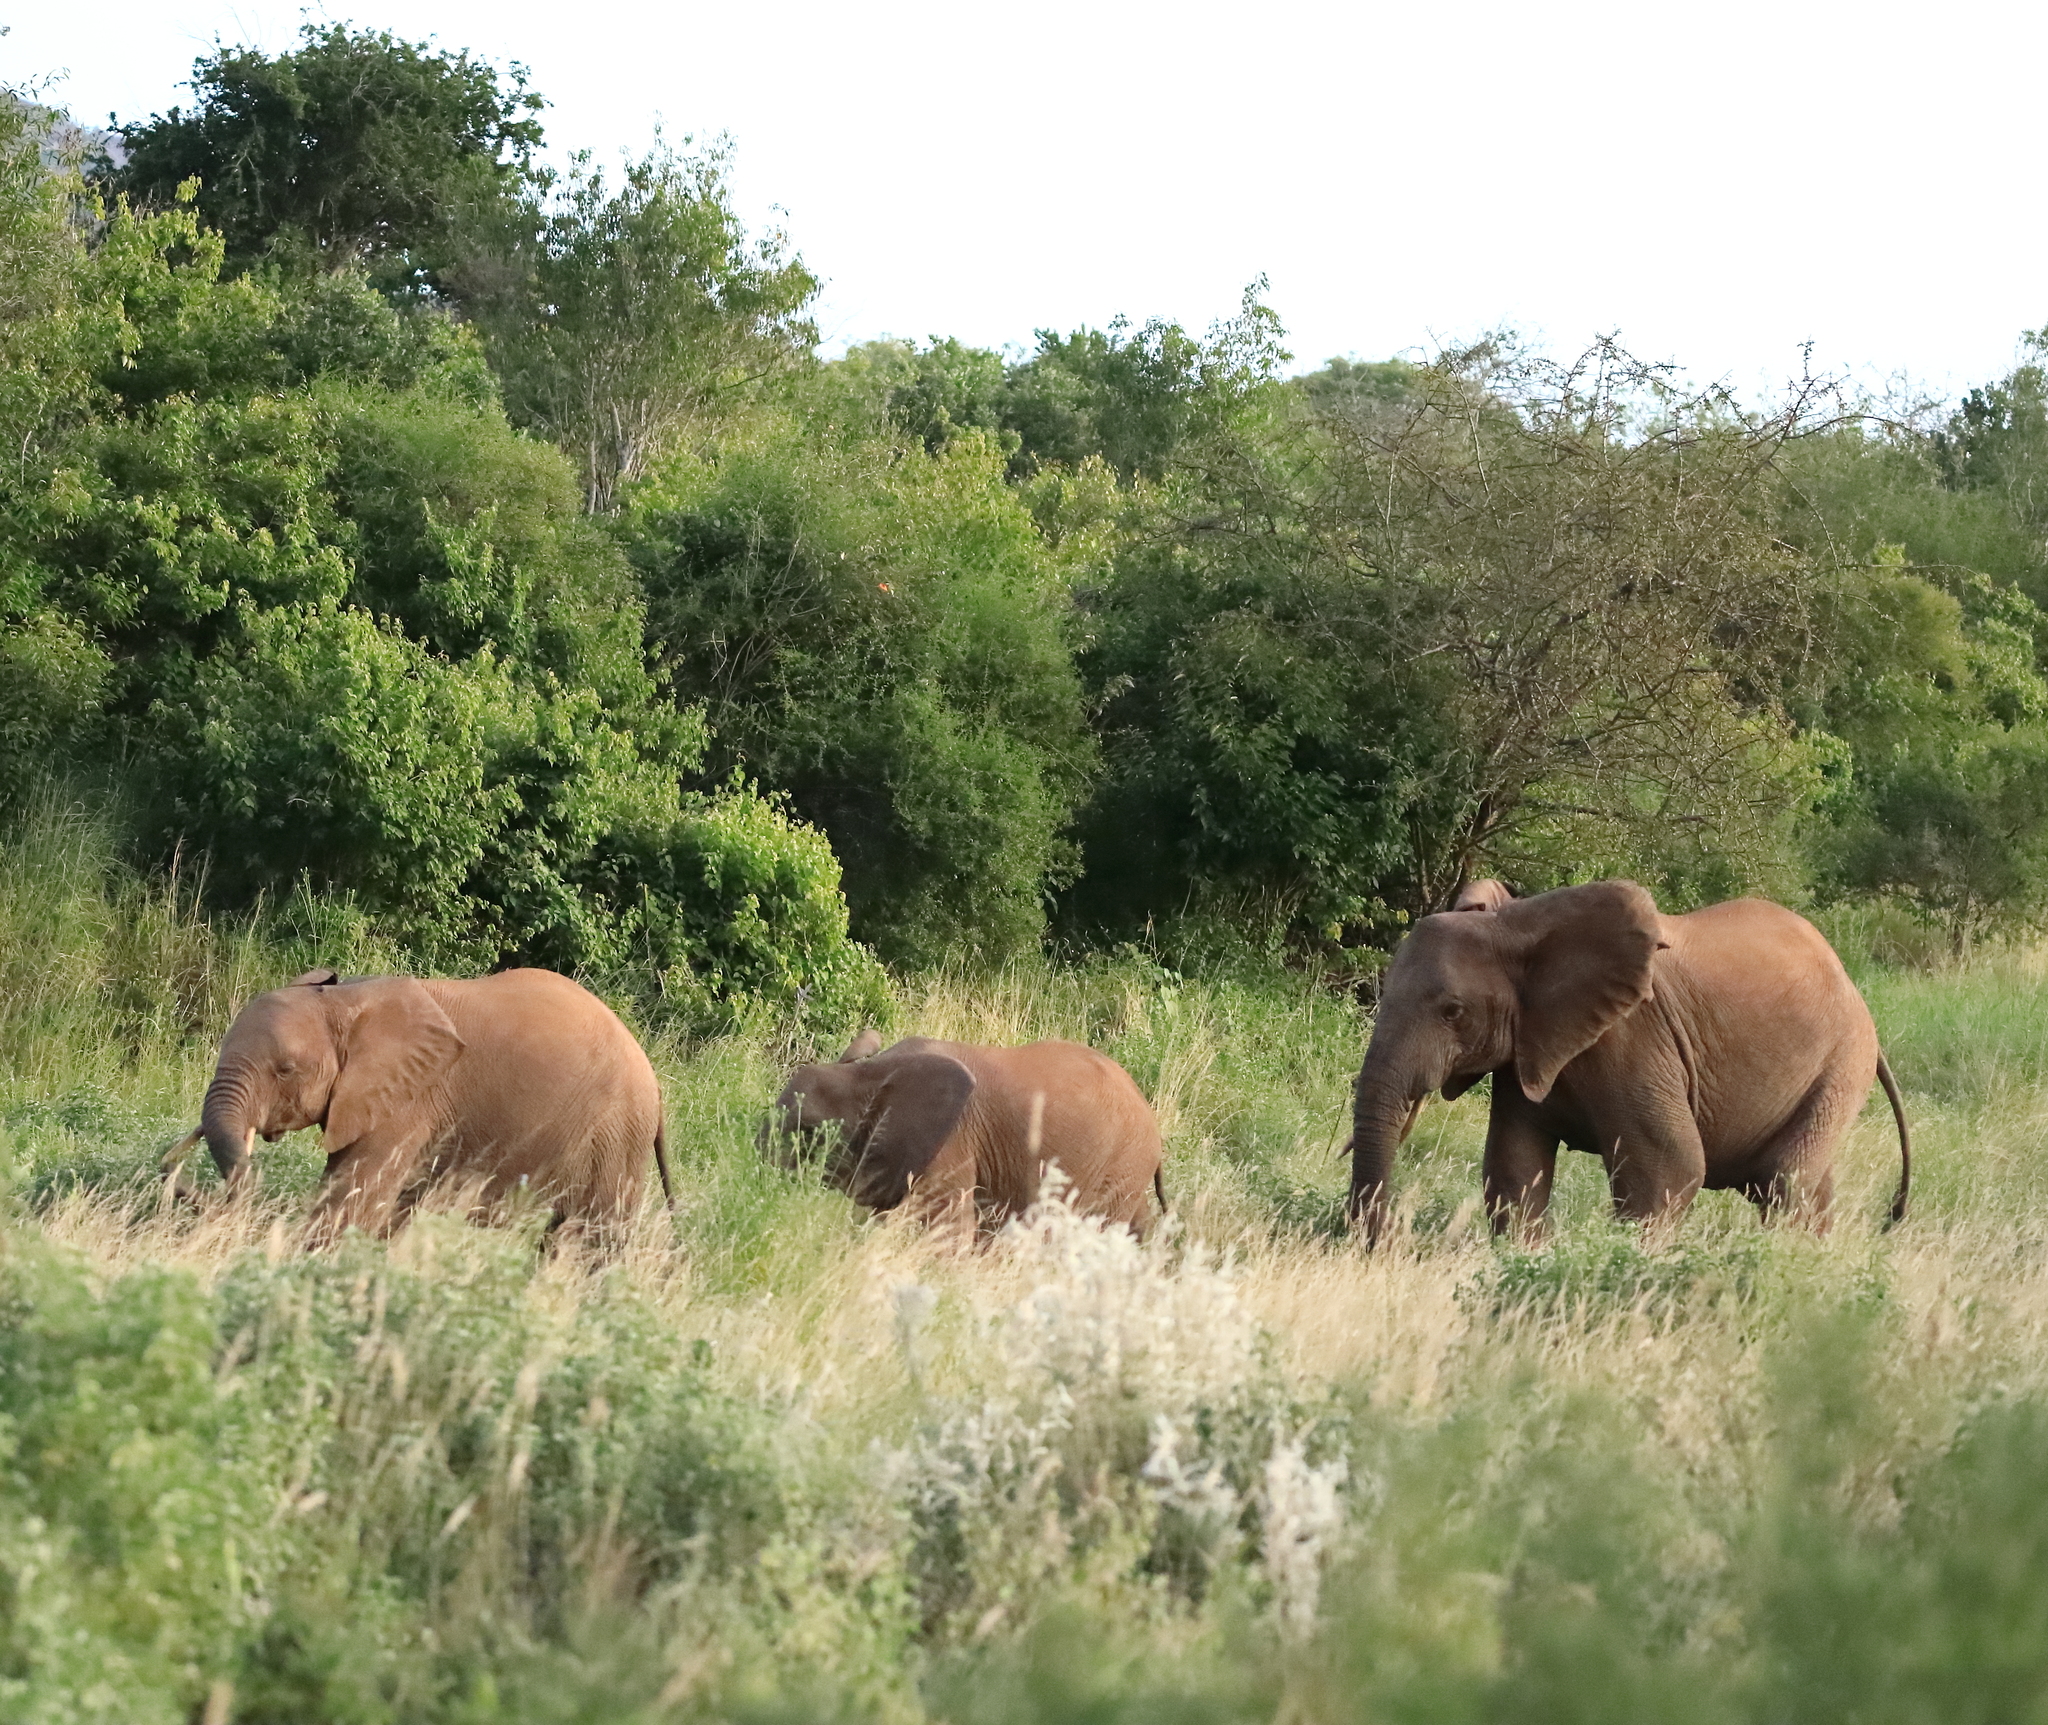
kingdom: Animalia
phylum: Chordata
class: Mammalia
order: Proboscidea
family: Elephantidae
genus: Loxodonta
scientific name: Loxodonta africana
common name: African elephant
